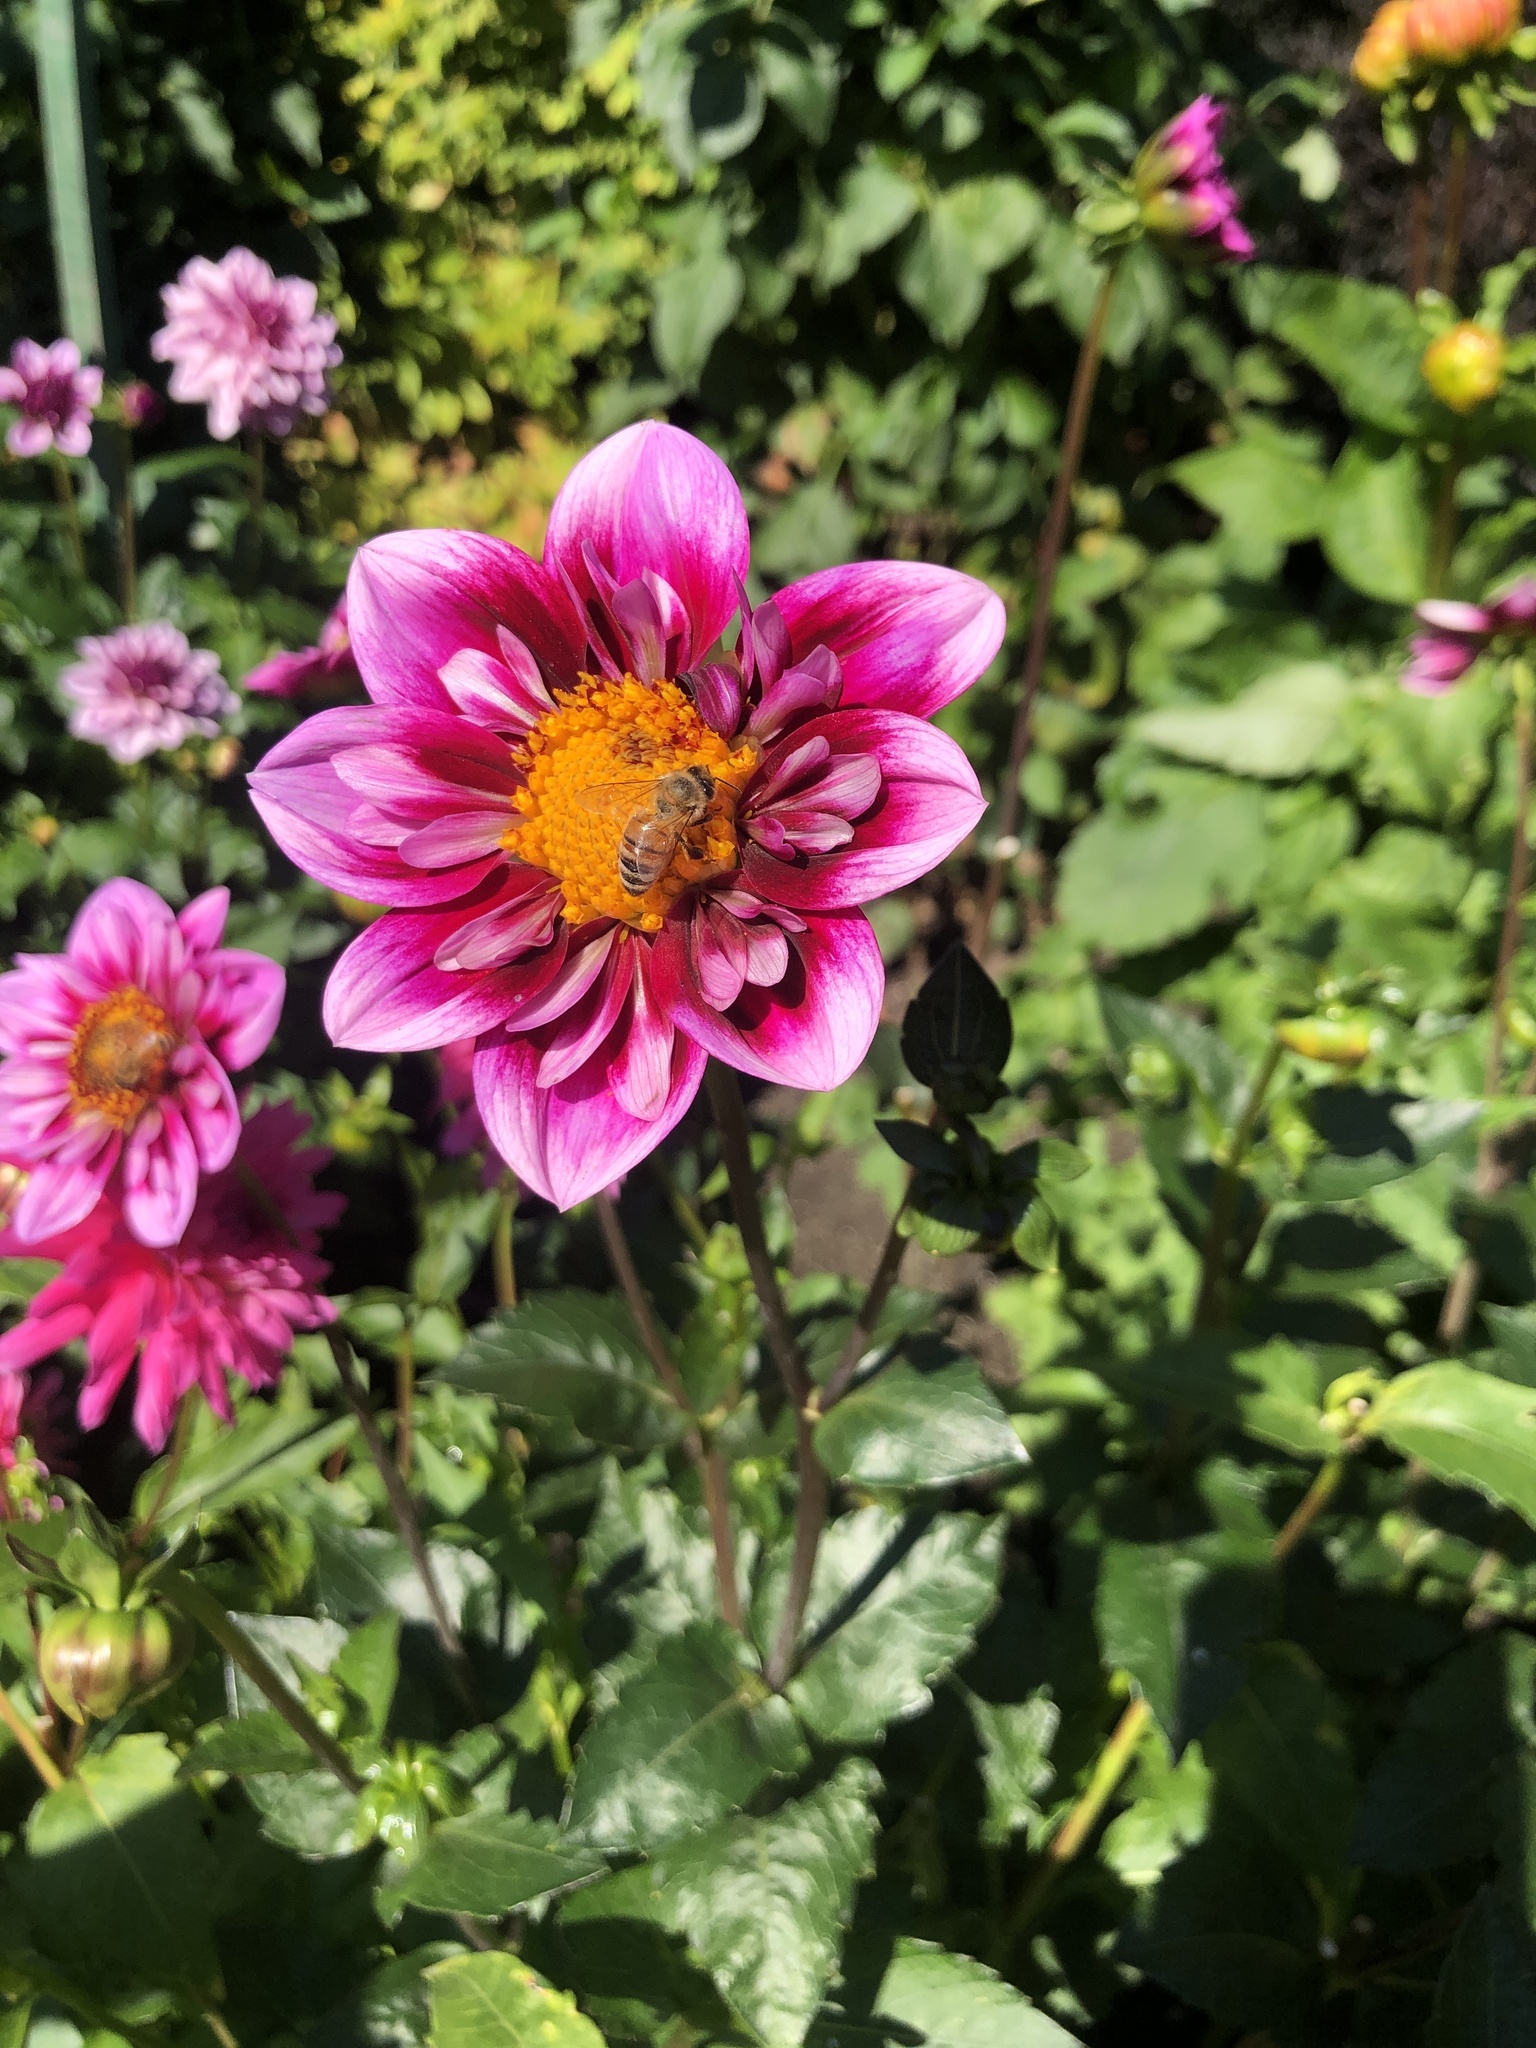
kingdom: Animalia
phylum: Arthropoda
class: Insecta
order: Hymenoptera
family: Apidae
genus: Apis
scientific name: Apis mellifera
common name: Honey bee
